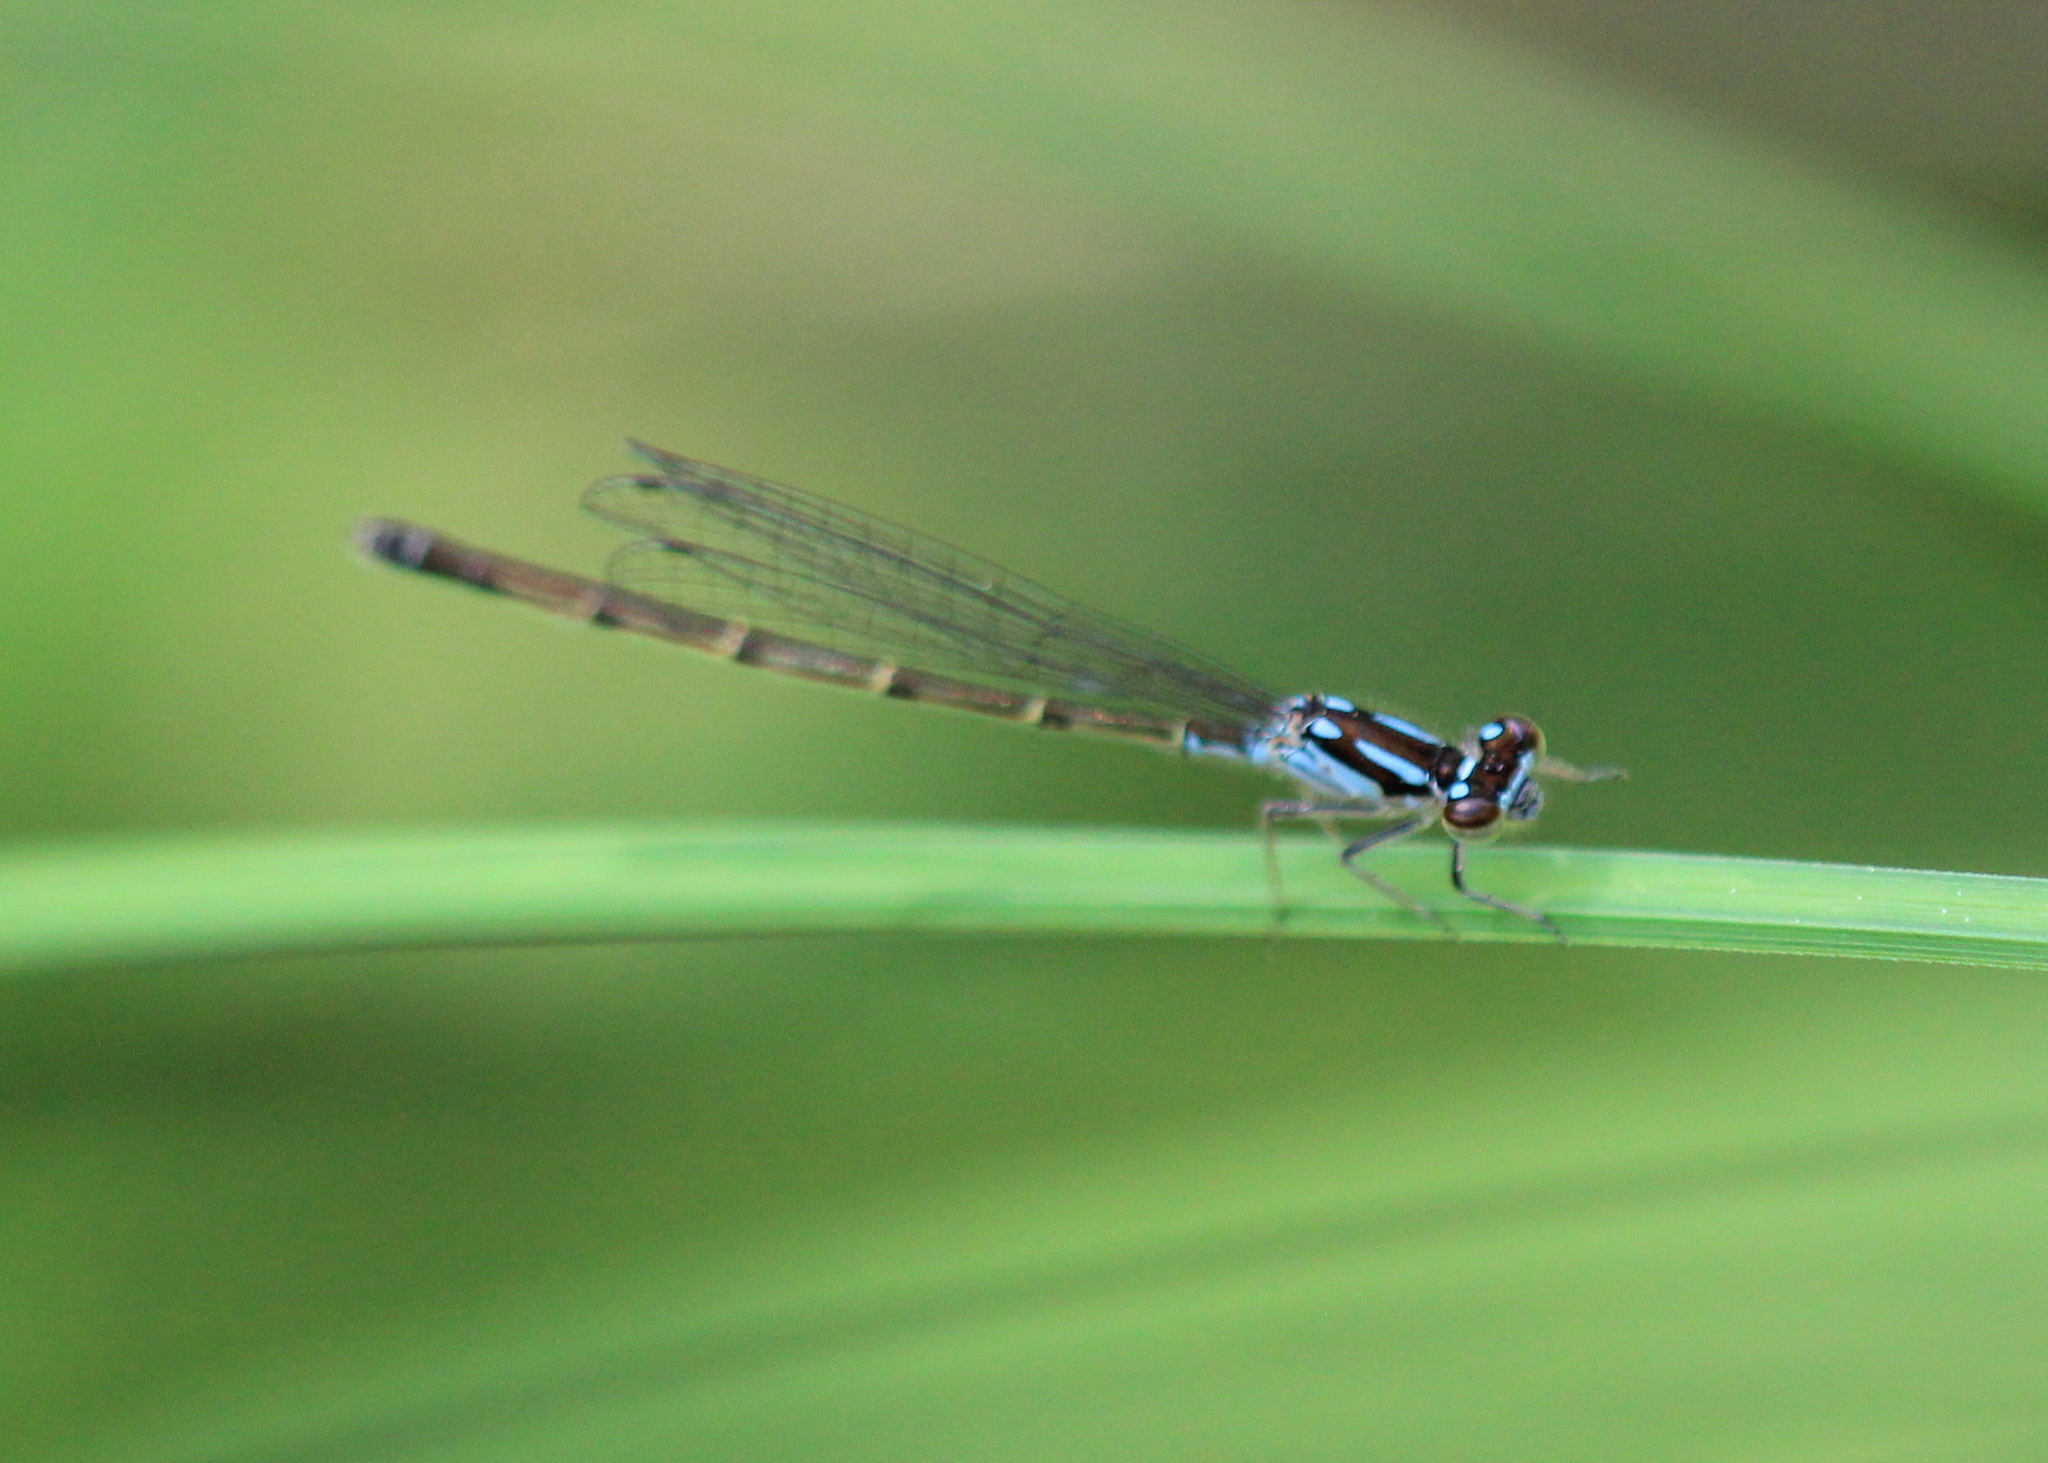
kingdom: Animalia
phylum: Arthropoda
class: Insecta
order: Odonata
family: Coenagrionidae
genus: Ischnura
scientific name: Ischnura posita
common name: Fragile forktail
